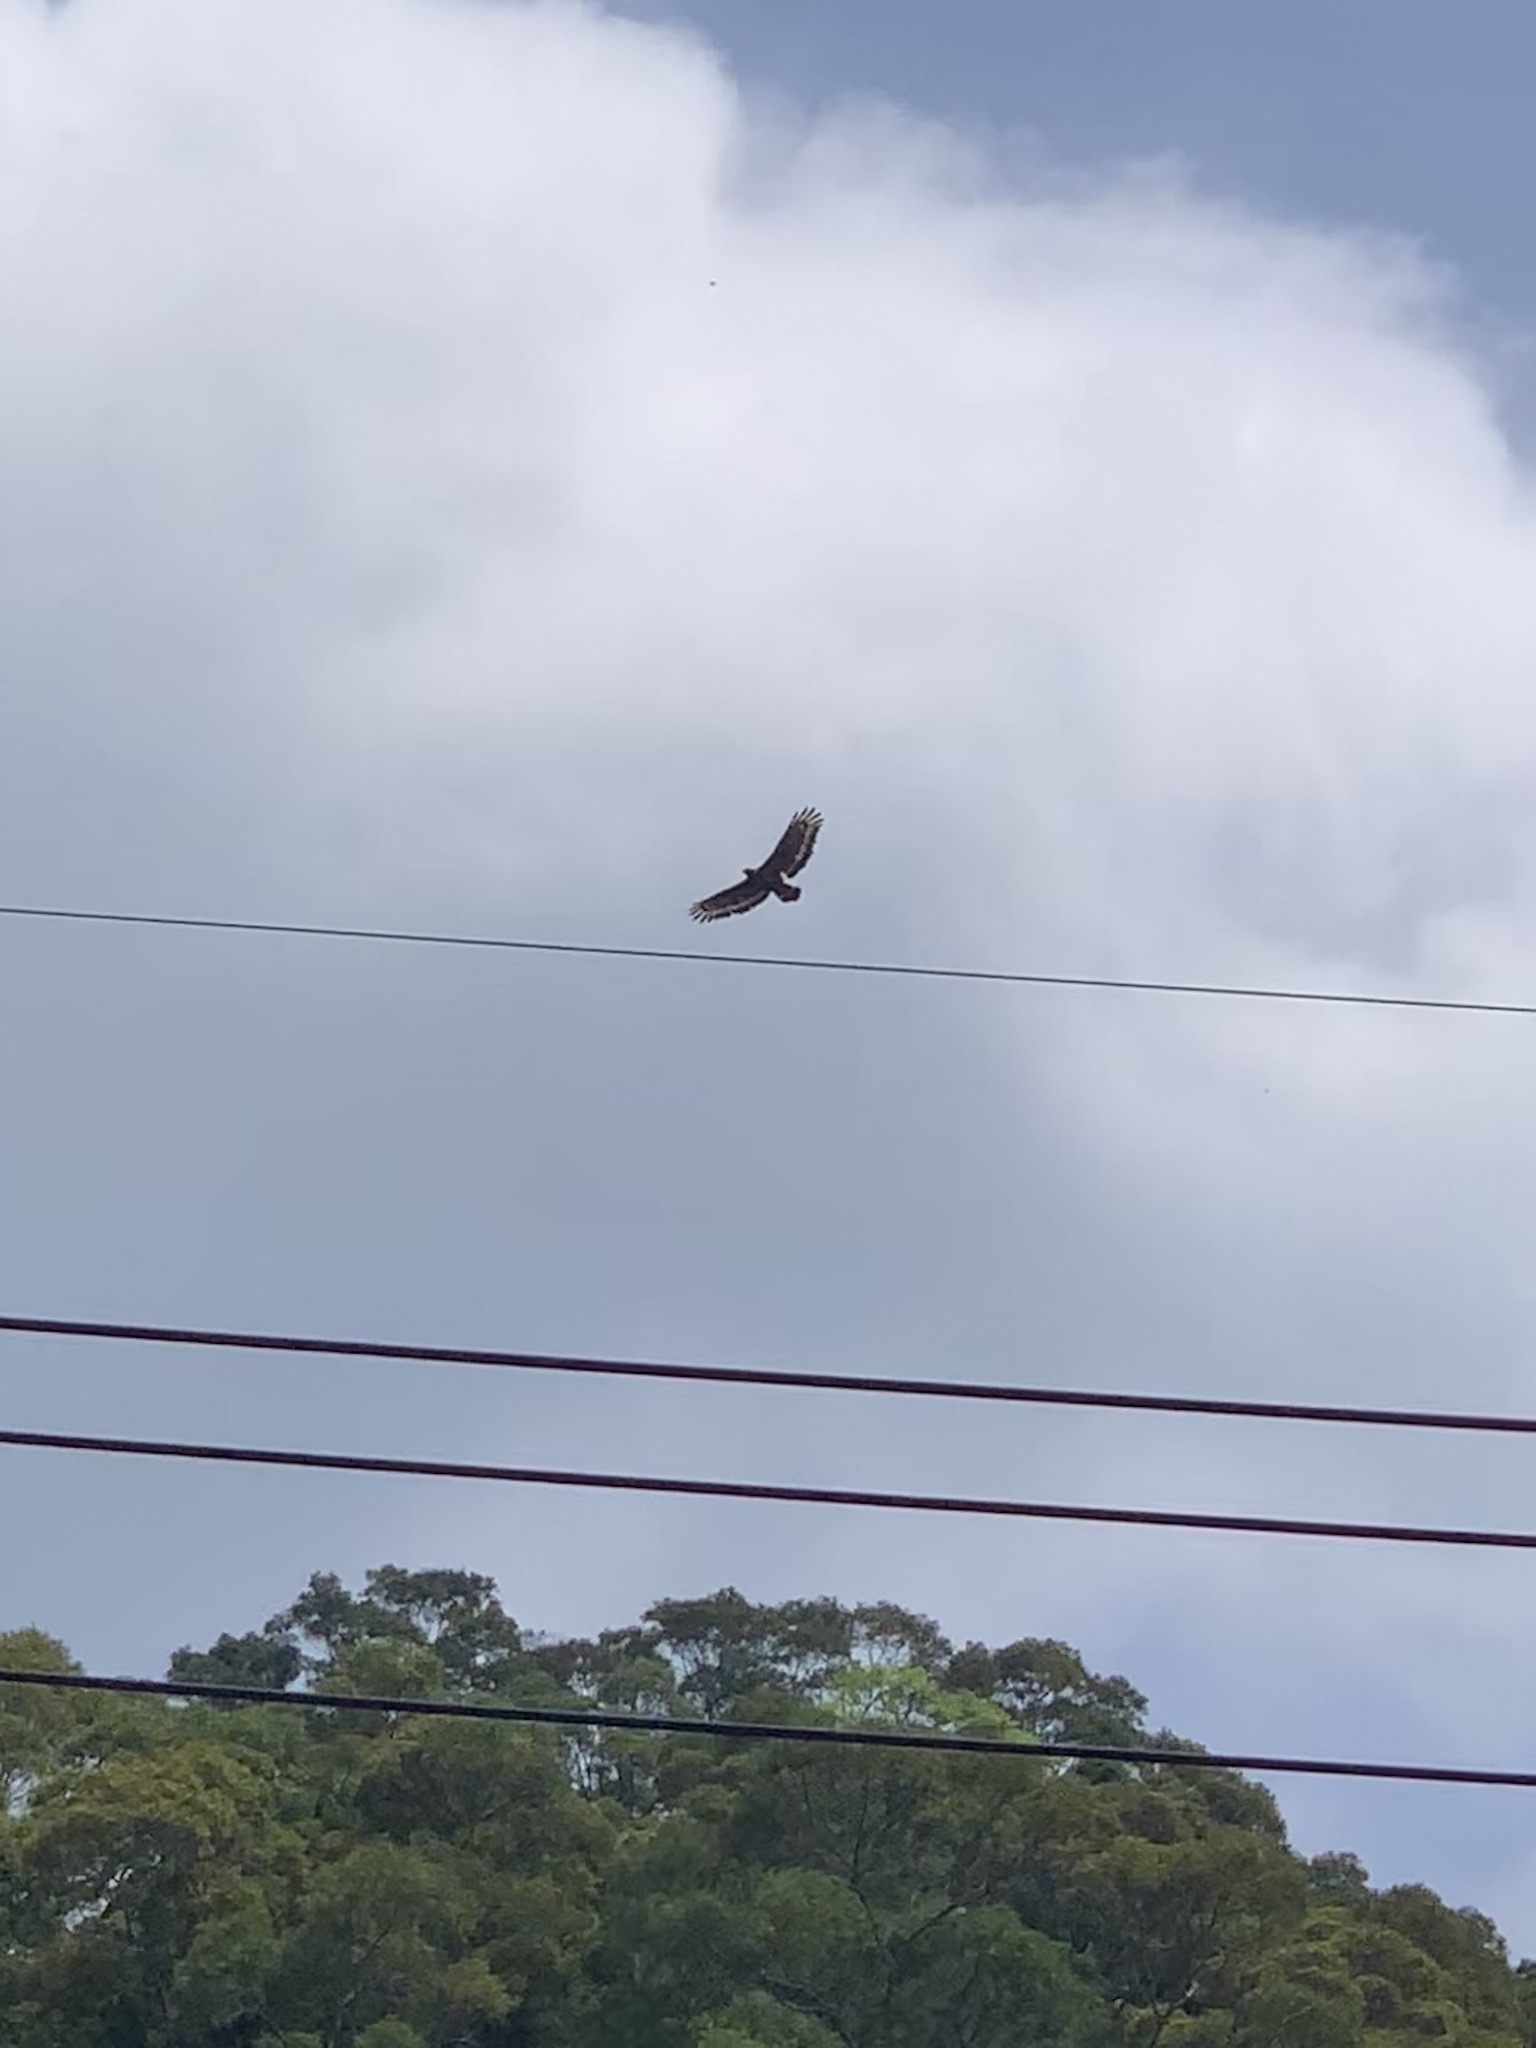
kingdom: Animalia
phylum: Chordata
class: Aves
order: Accipitriformes
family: Accipitridae
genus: Spilornis
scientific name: Spilornis cheela
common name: Crested serpent eagle
